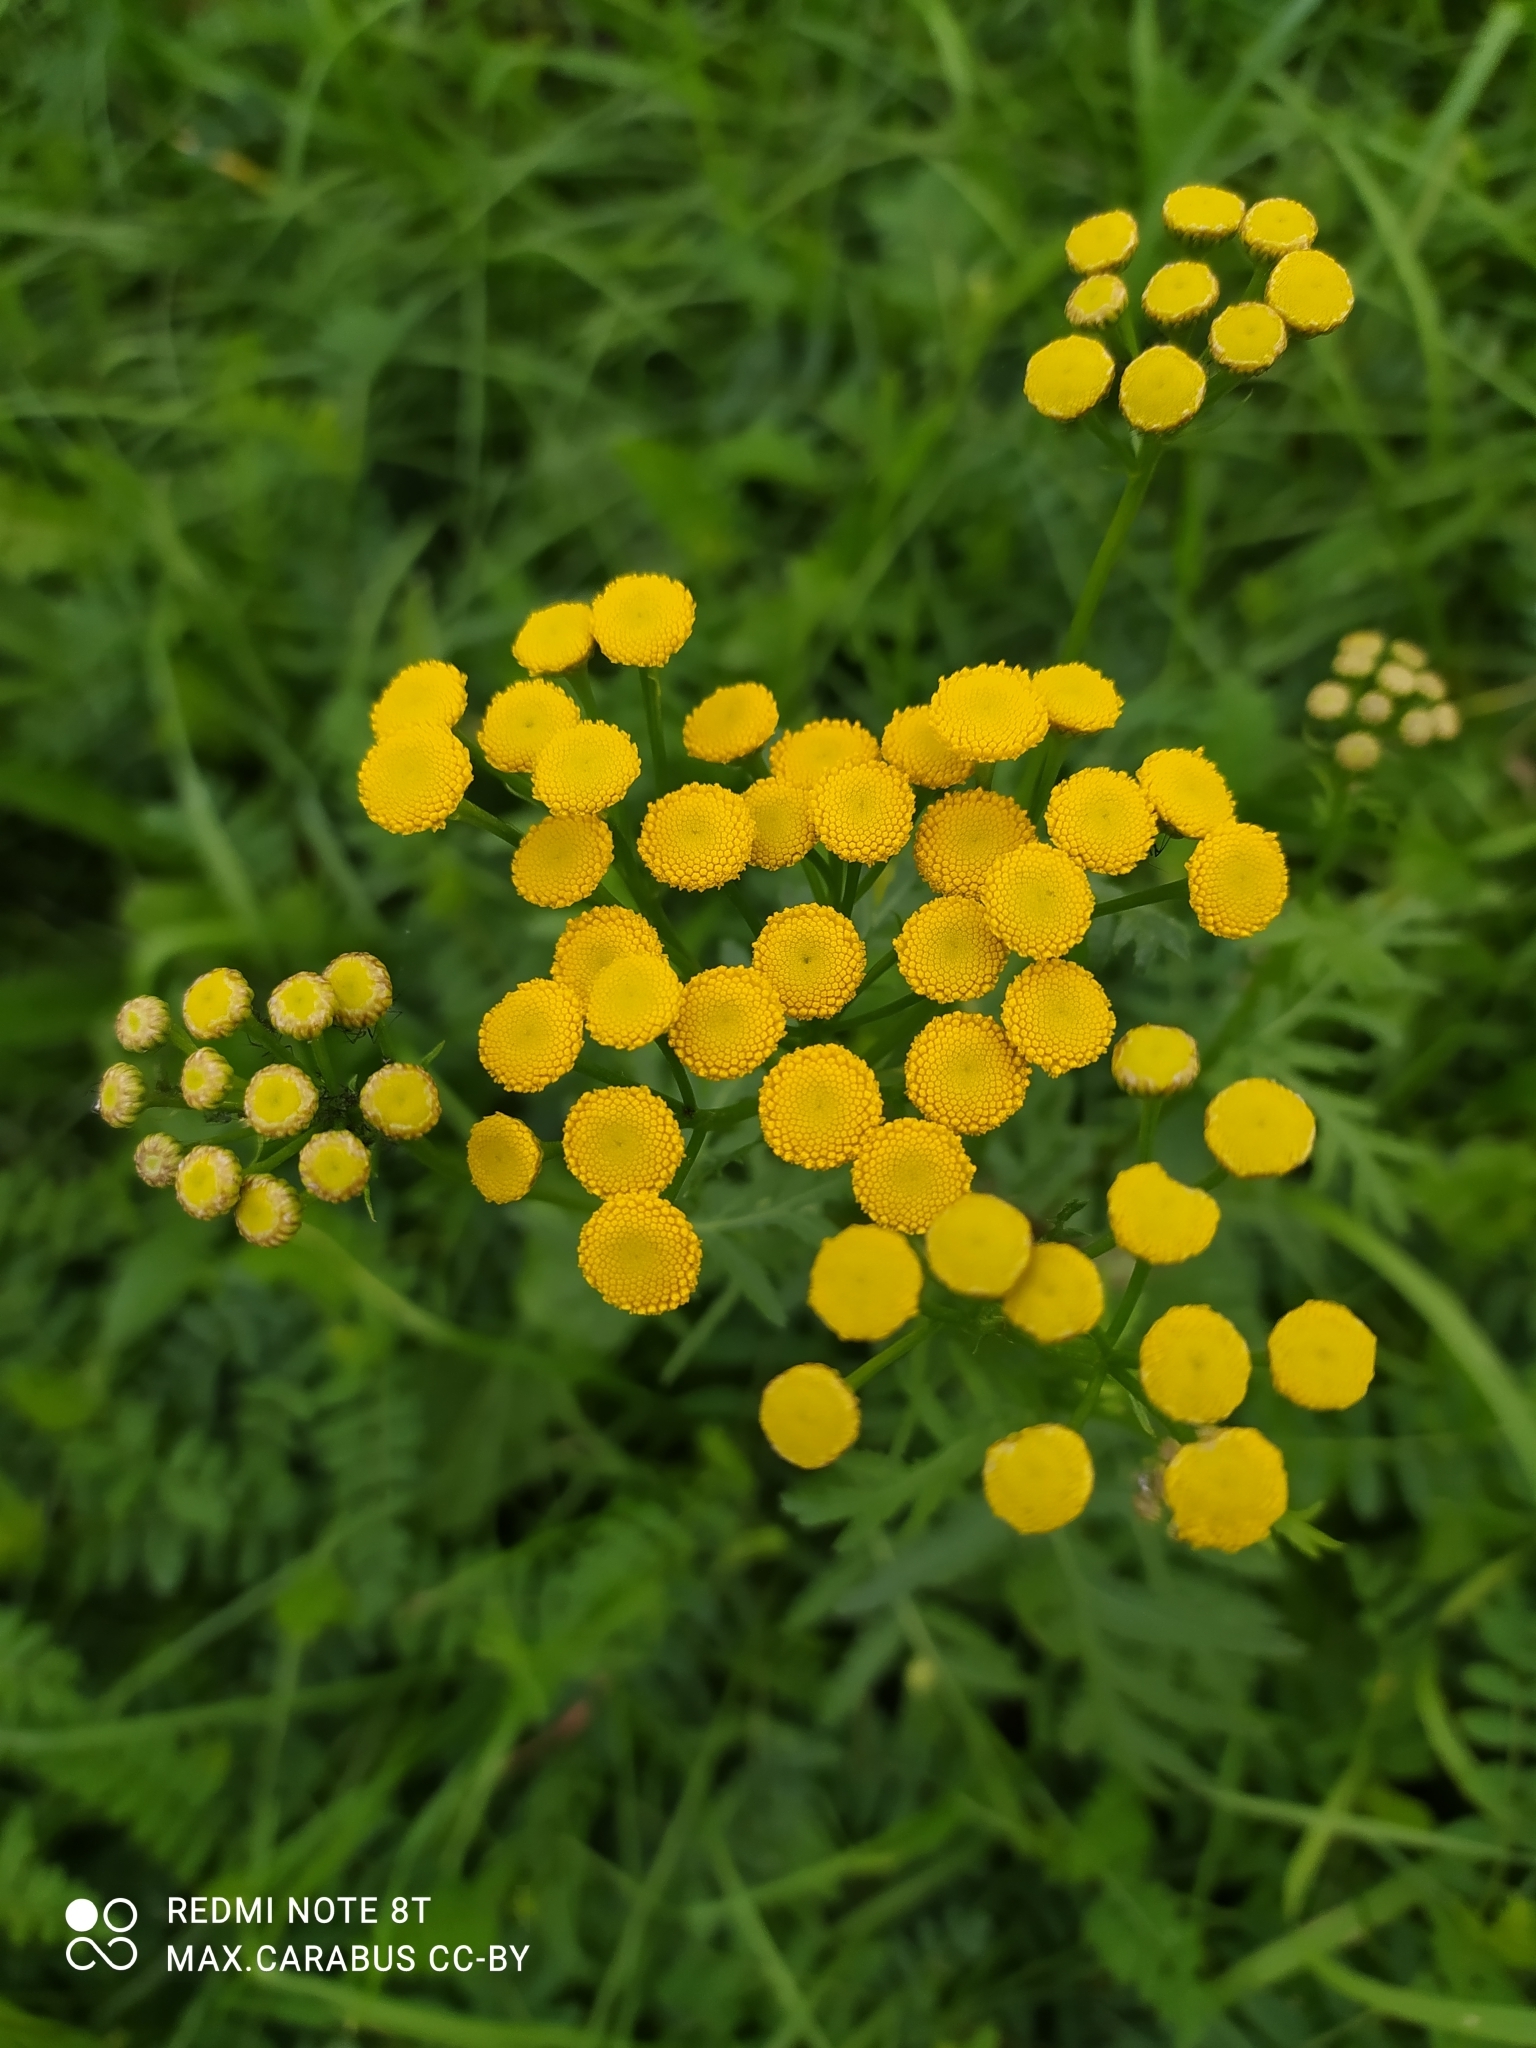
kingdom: Plantae
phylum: Tracheophyta
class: Magnoliopsida
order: Asterales
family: Asteraceae
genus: Tanacetum
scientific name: Tanacetum vulgare
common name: Common tansy
